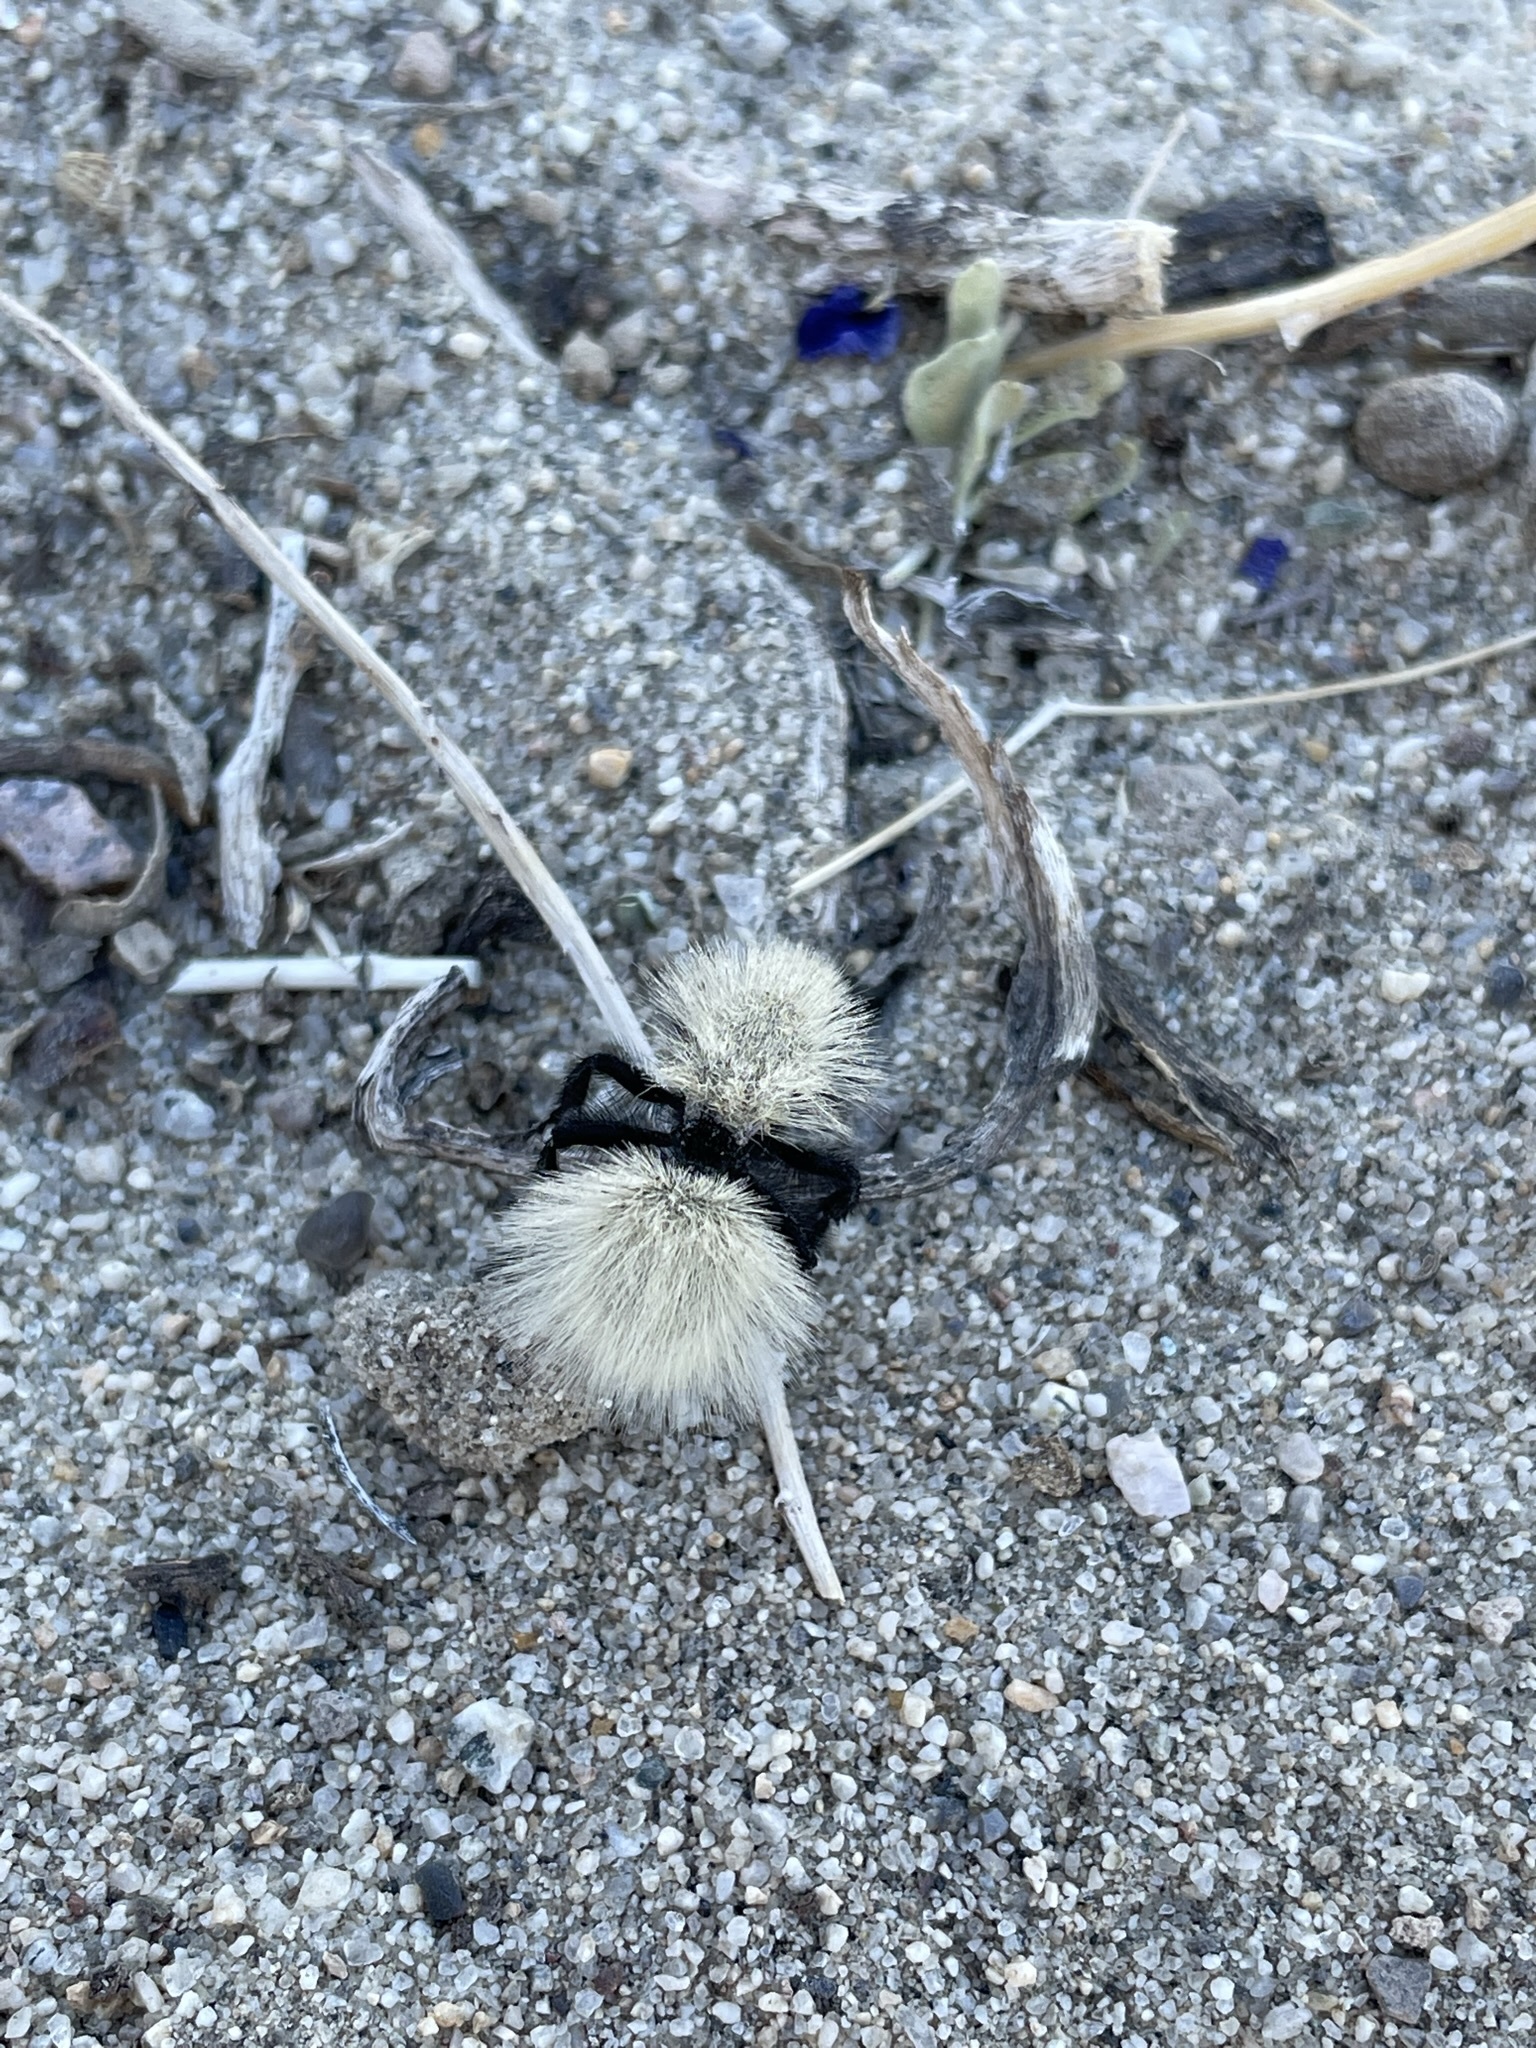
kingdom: Animalia
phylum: Arthropoda
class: Insecta
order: Hymenoptera
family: Mutillidae
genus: Dasymutilla
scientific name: Dasymutilla
